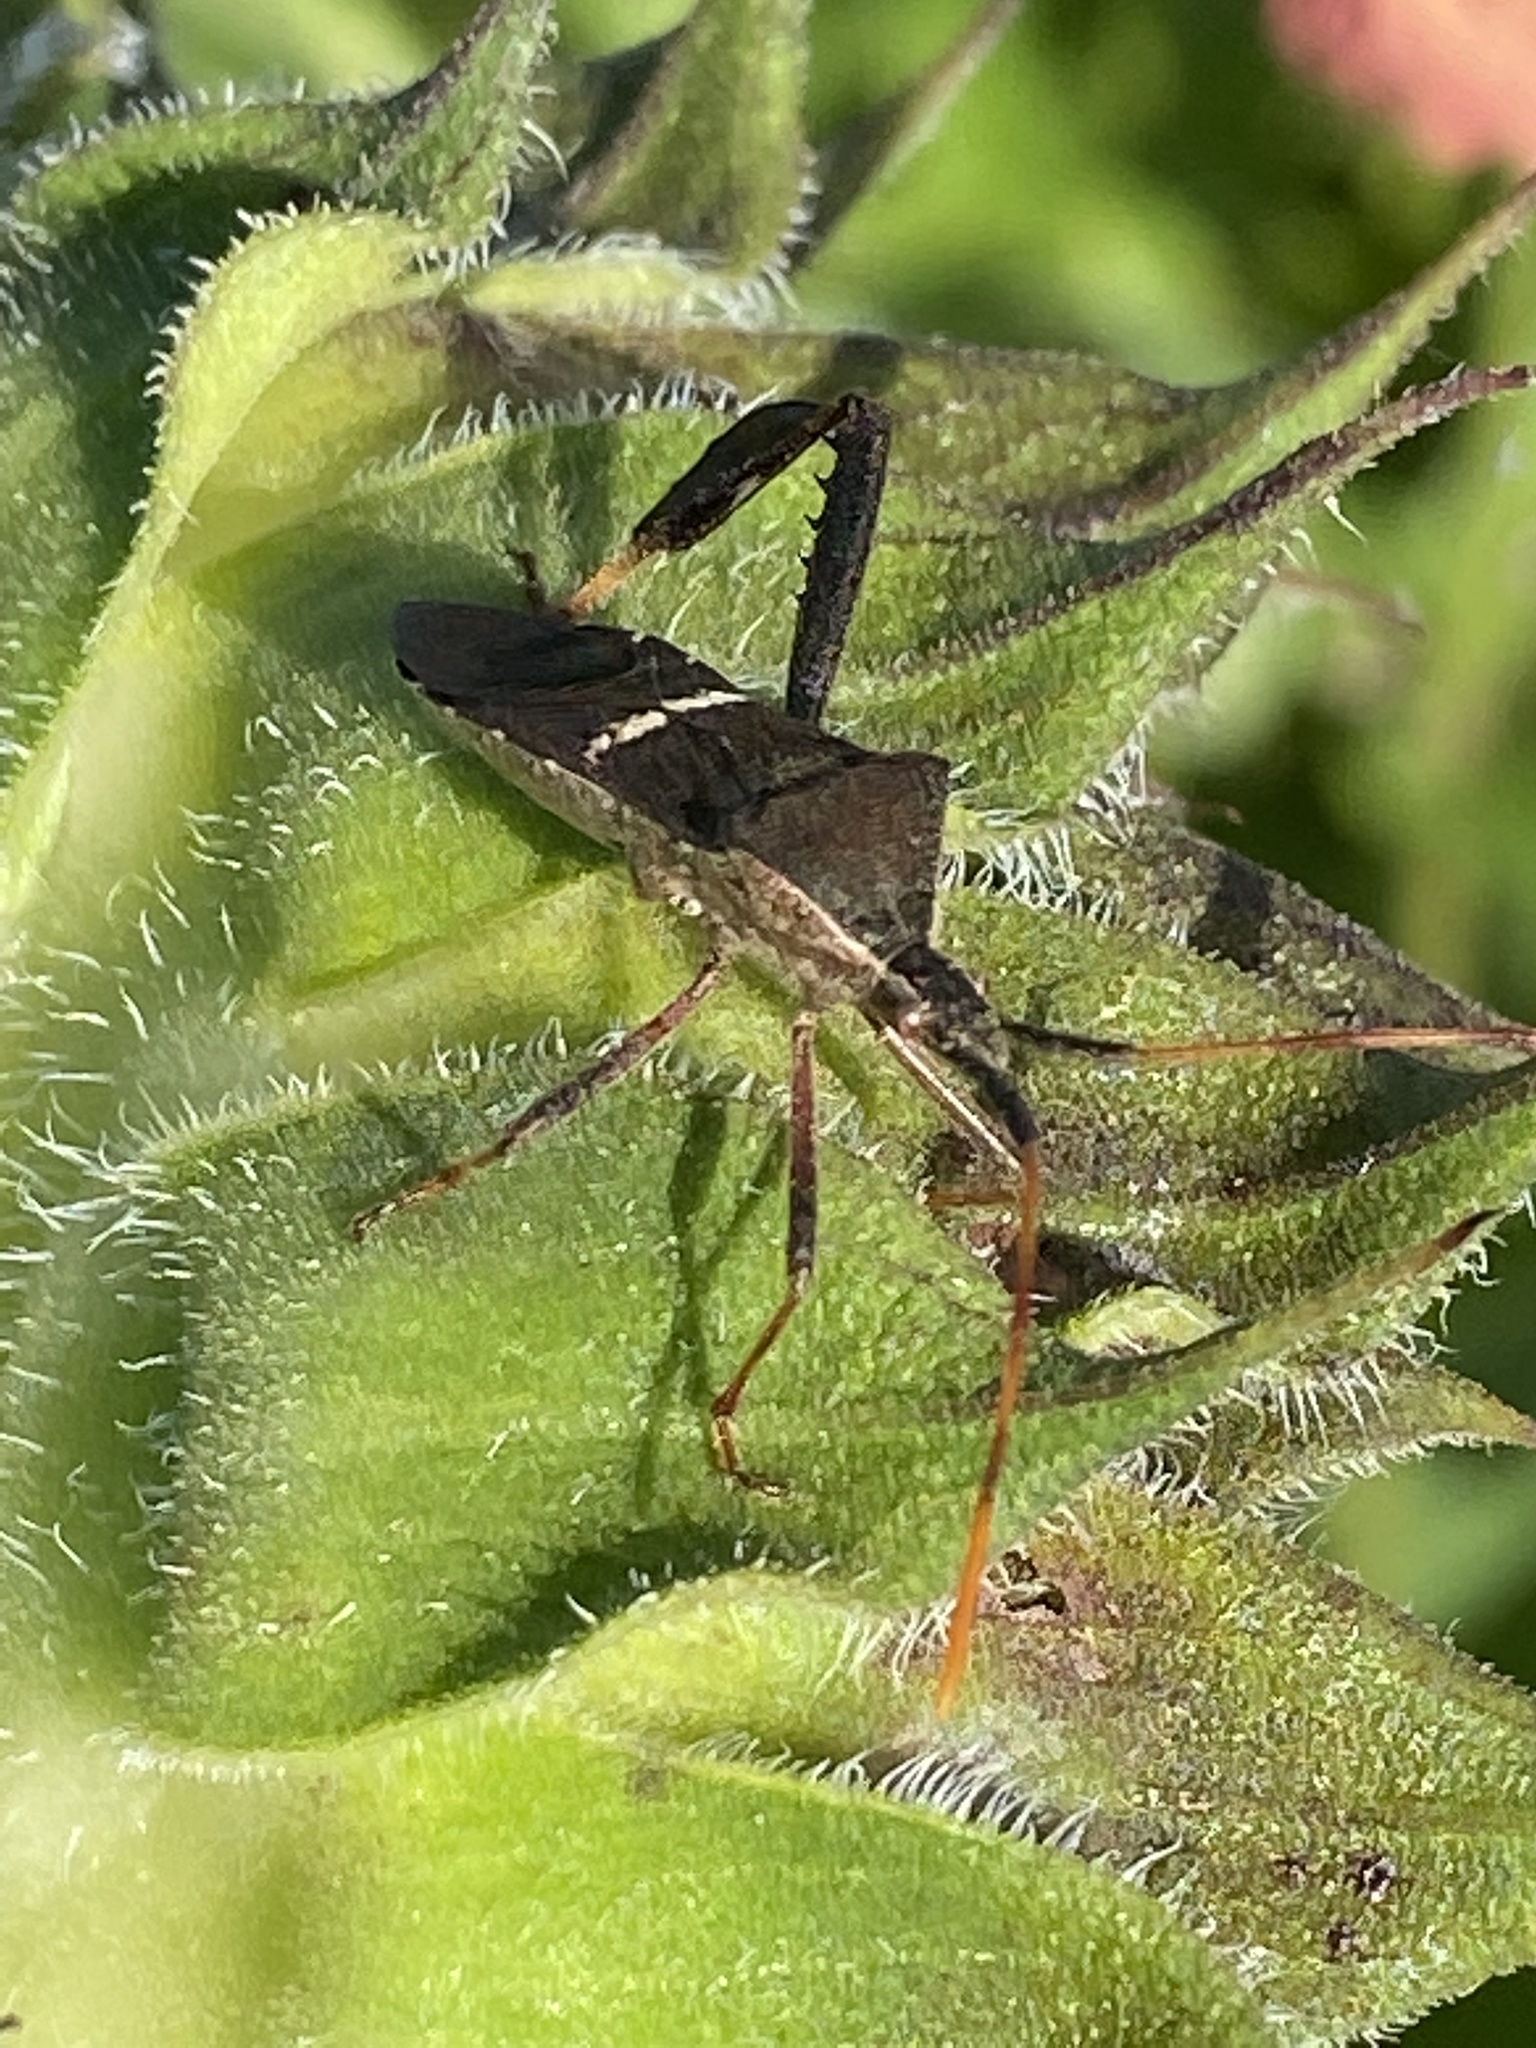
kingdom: Animalia
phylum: Arthropoda
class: Insecta
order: Hemiptera
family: Coreidae
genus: Leptoglossus
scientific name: Leptoglossus phyllopus
